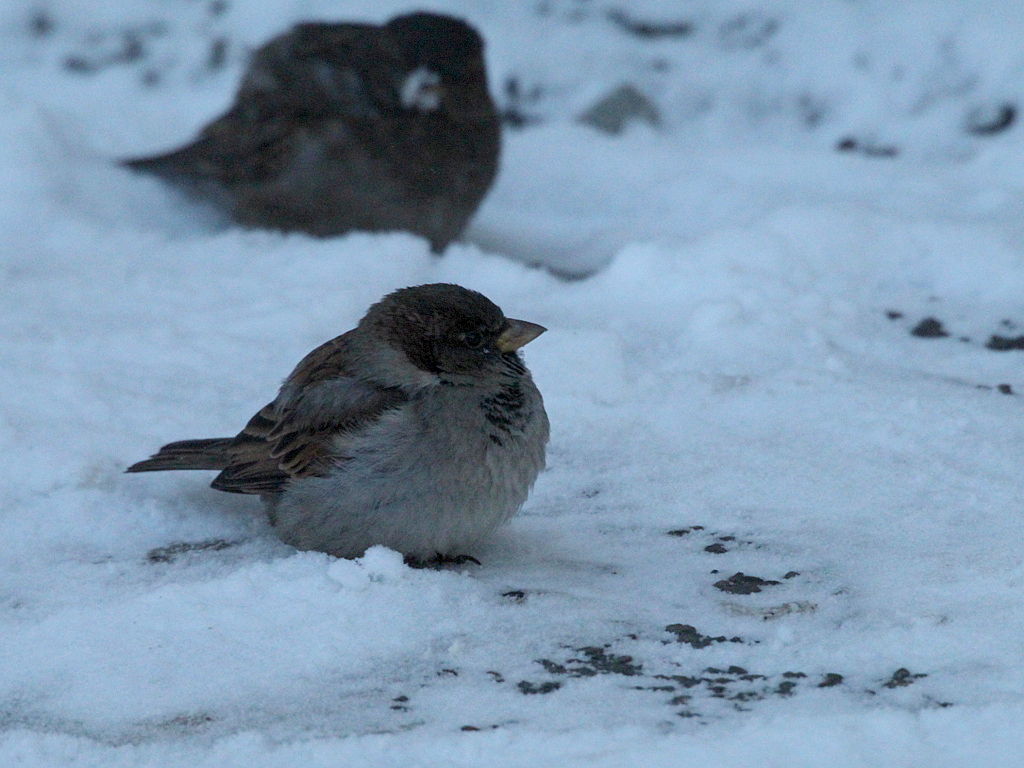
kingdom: Animalia
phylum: Chordata
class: Aves
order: Passeriformes
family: Passeridae
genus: Passer
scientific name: Passer domesticus
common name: House sparrow
